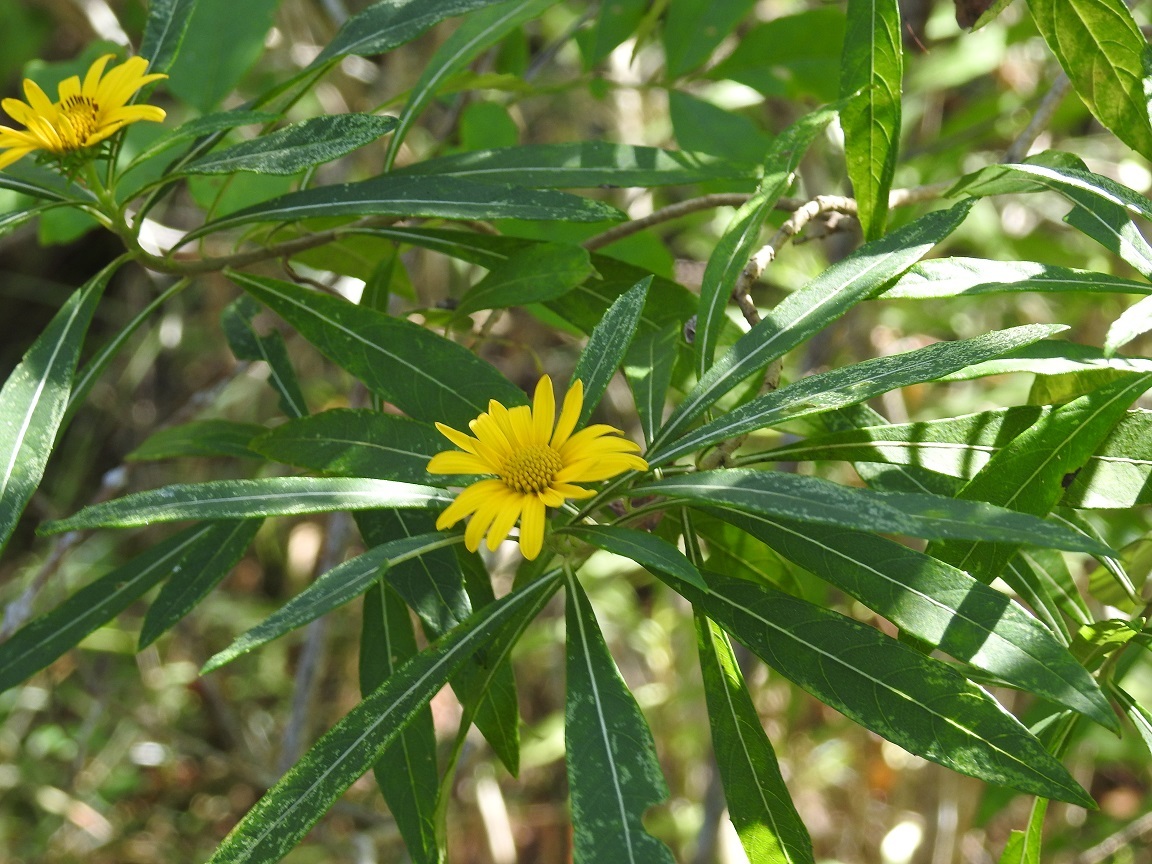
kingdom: Plantae
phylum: Tracheophyta
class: Magnoliopsida
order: Asterales
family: Asteraceae
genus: Verbesina
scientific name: Verbesina neriifolia
